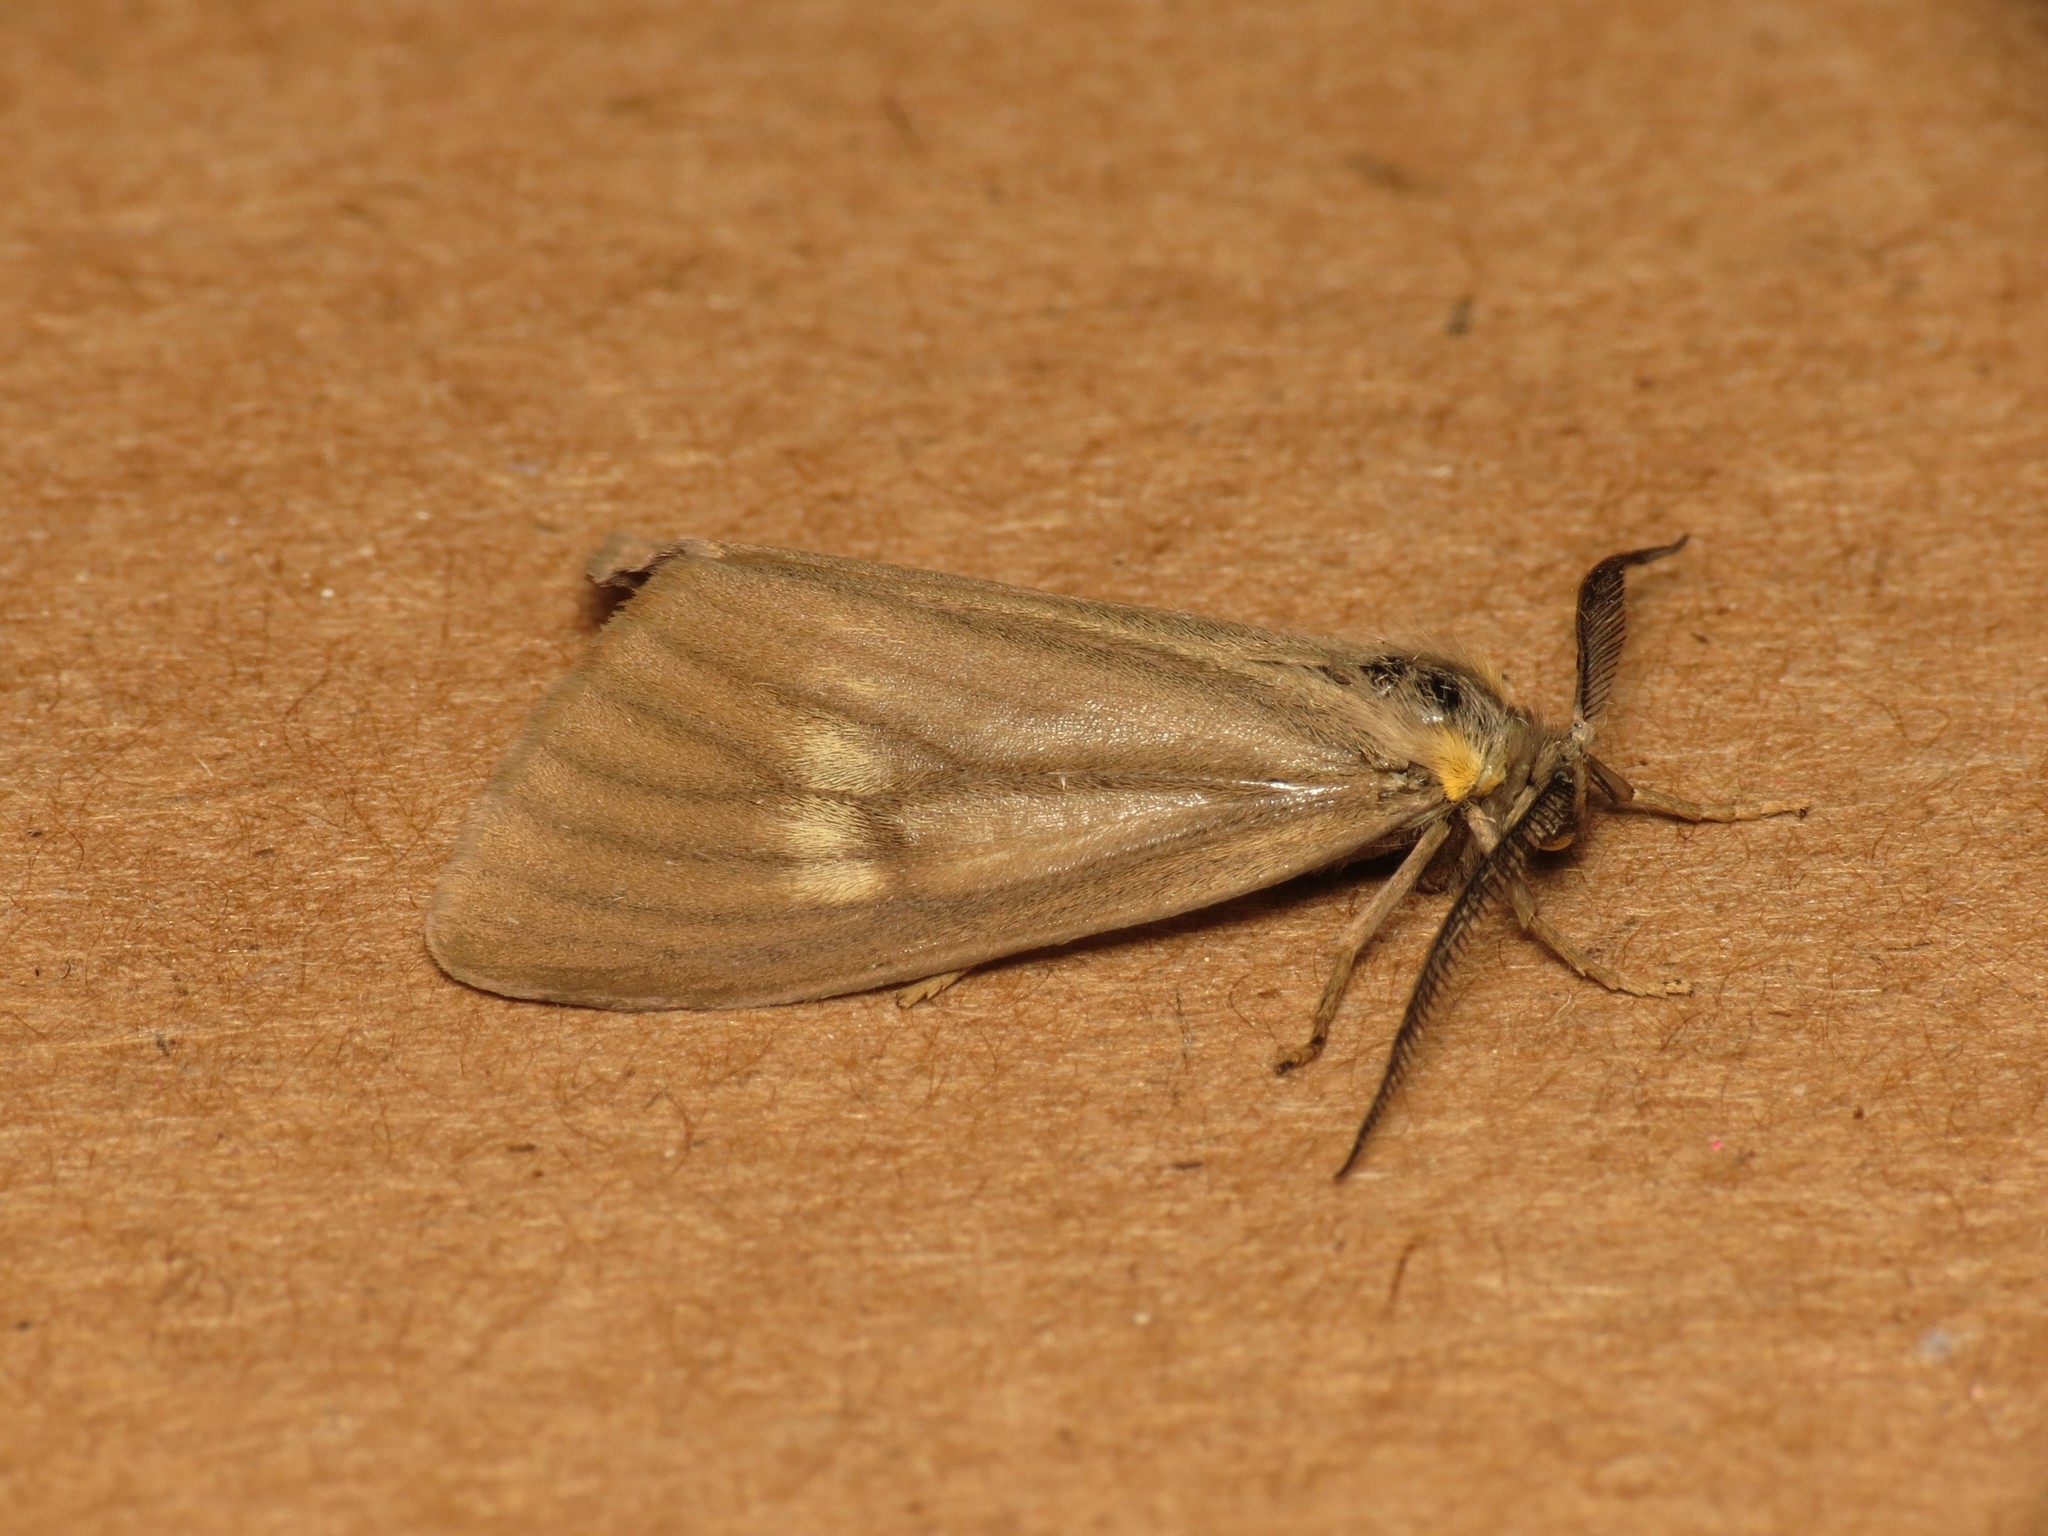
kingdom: Animalia
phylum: Arthropoda
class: Insecta
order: Lepidoptera
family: Notodontidae
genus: Phryganidia
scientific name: Phryganidia californica
